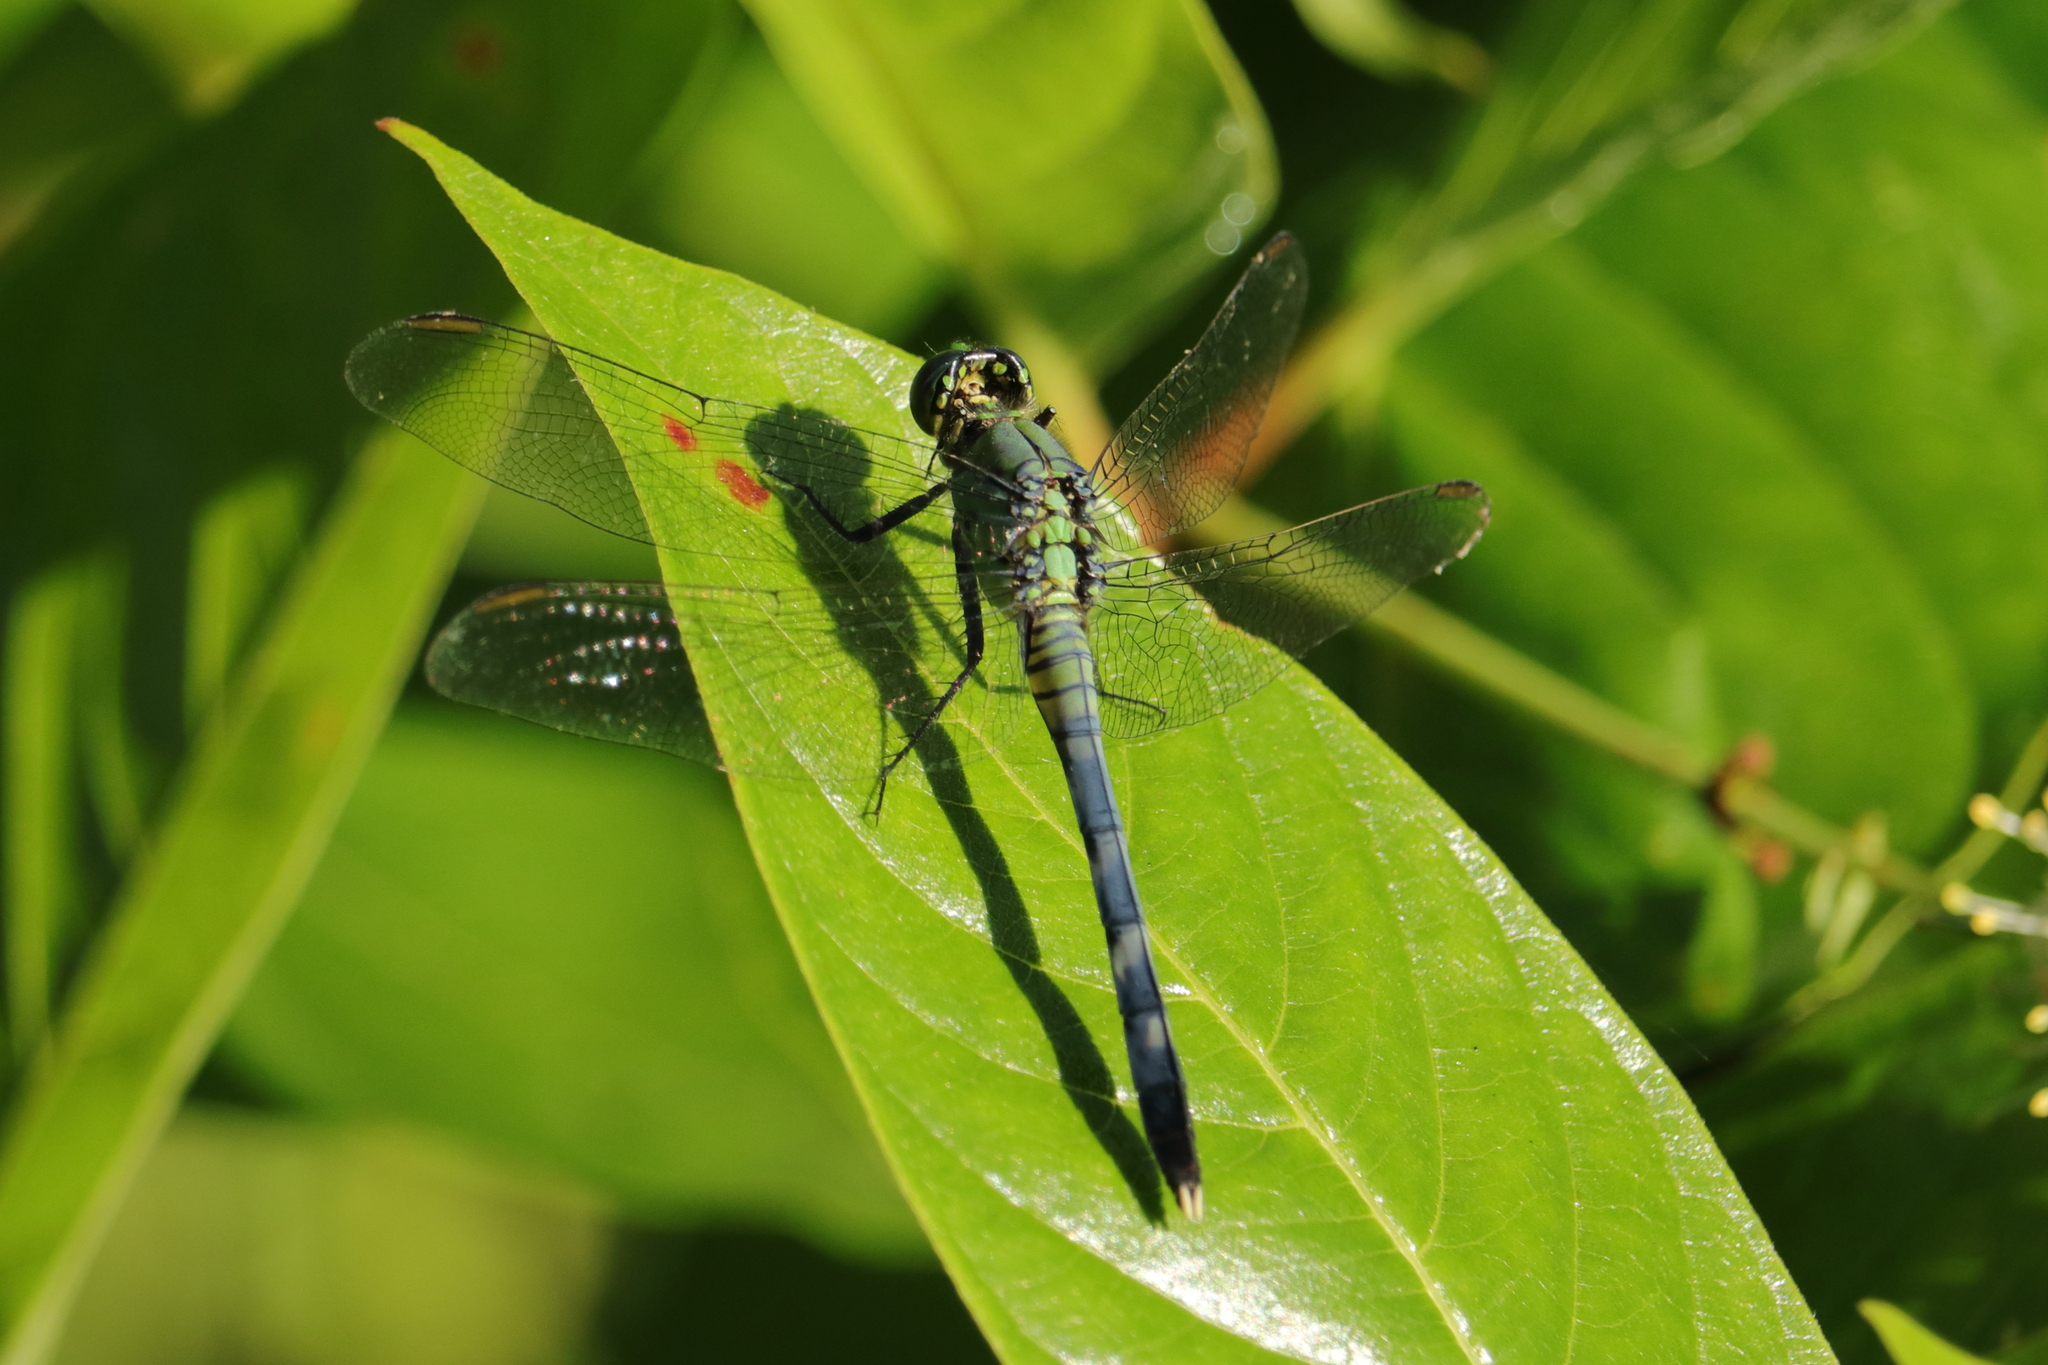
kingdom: Animalia
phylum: Arthropoda
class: Insecta
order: Odonata
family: Libellulidae
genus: Erythemis
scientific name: Erythemis simplicicollis
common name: Eastern pondhawk
